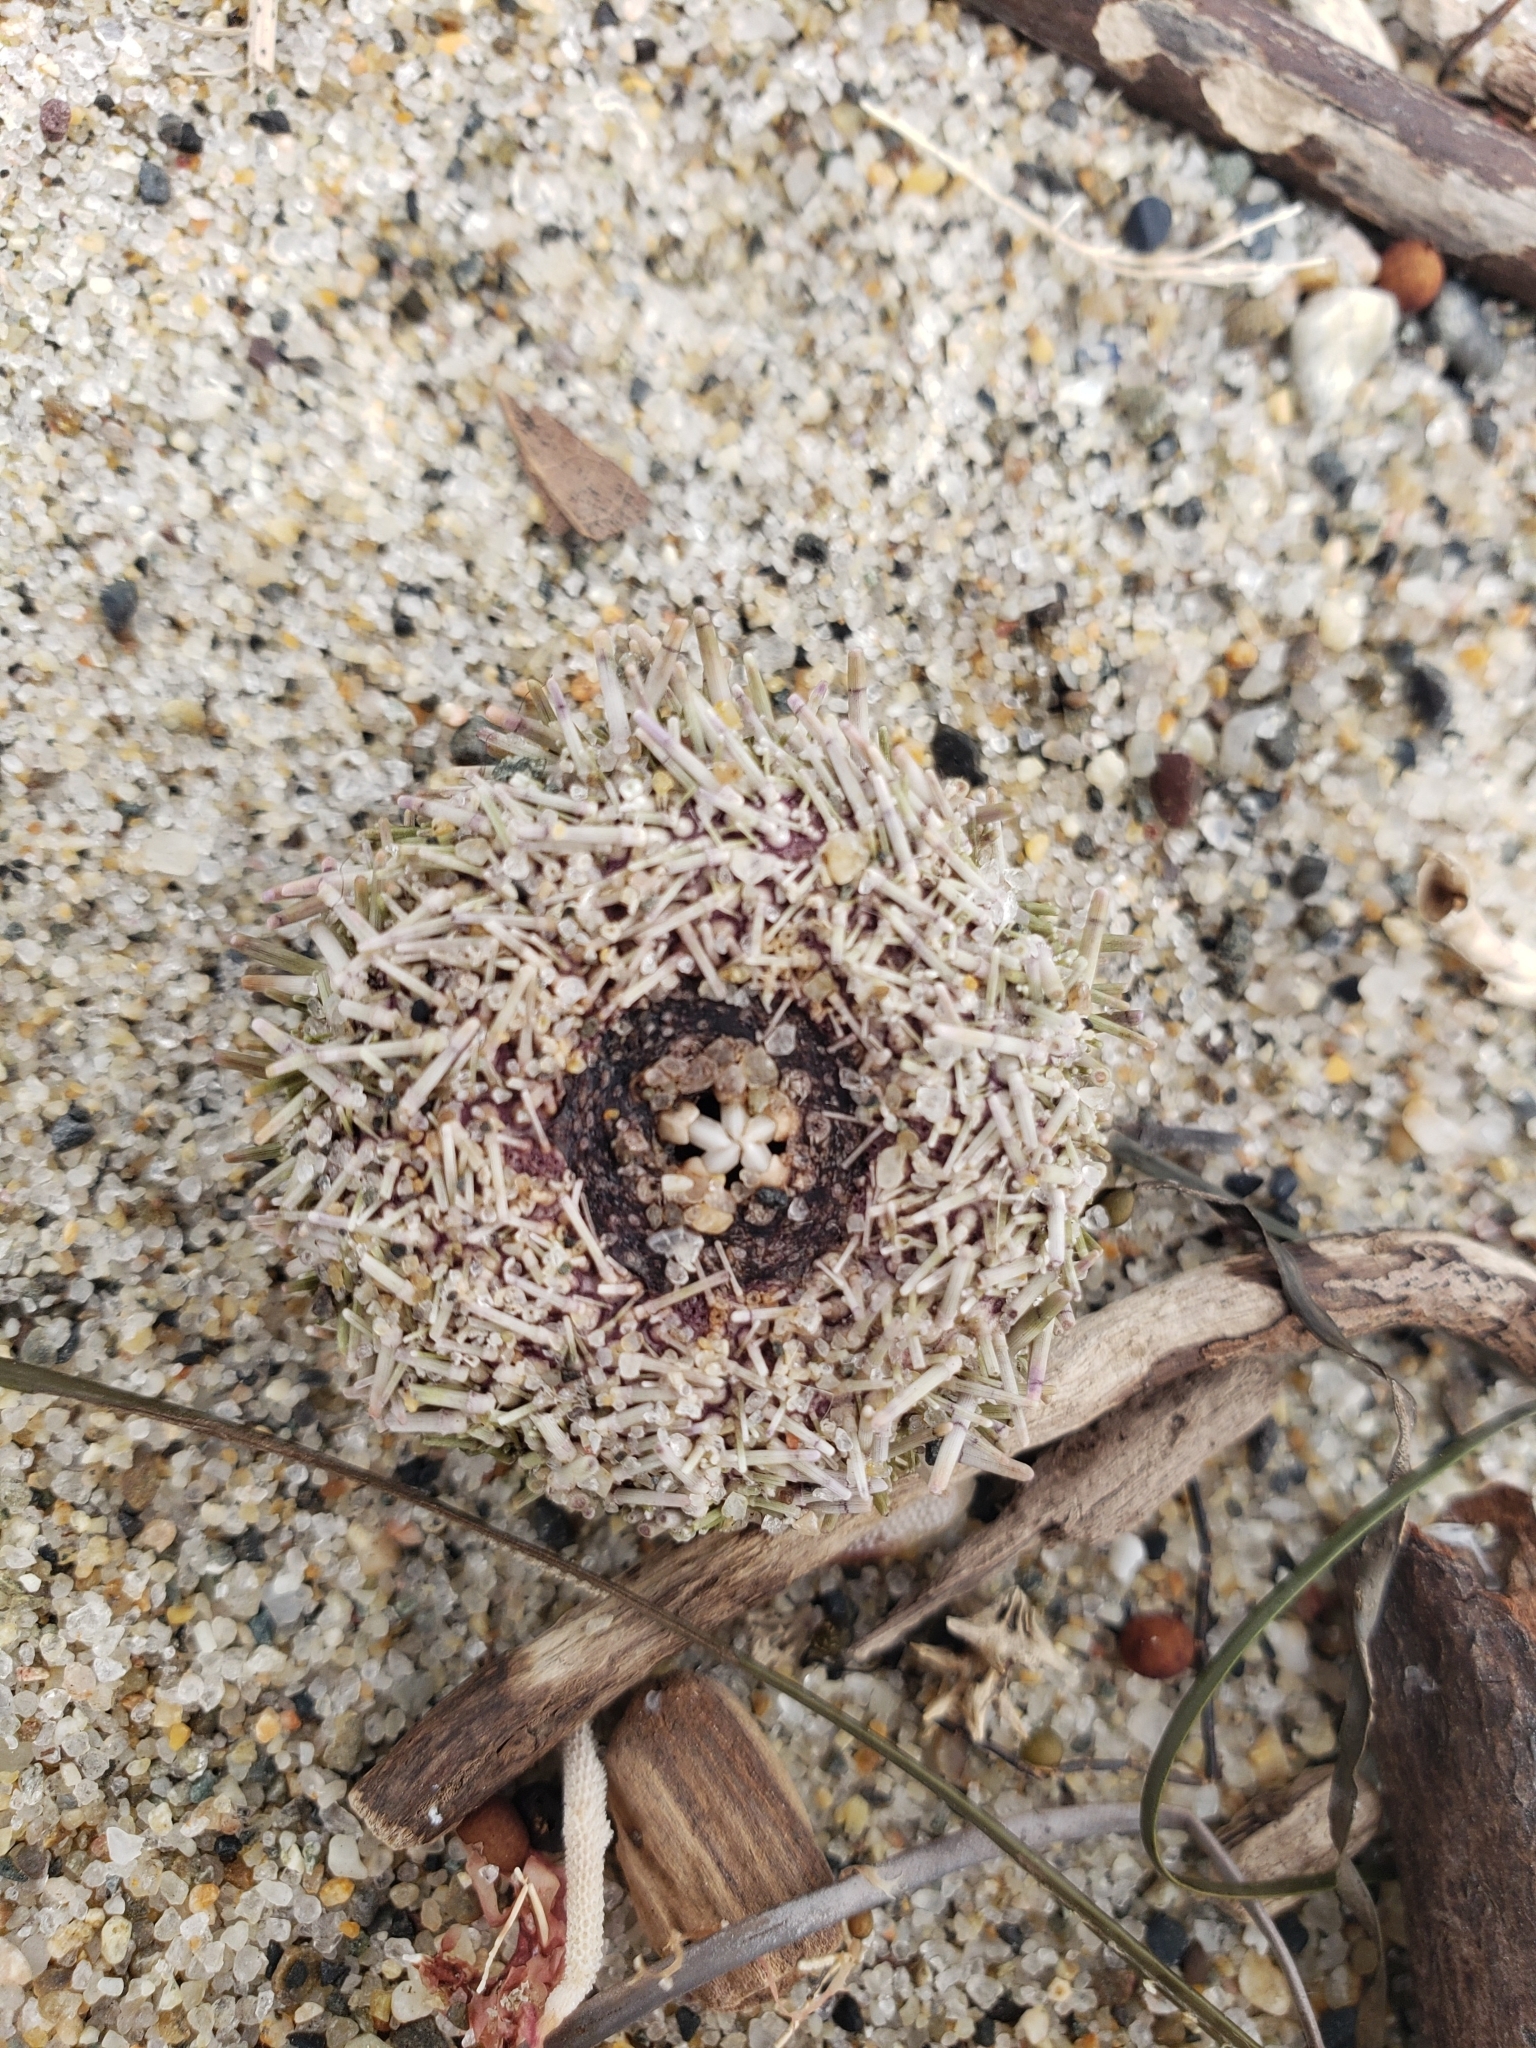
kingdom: Animalia
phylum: Echinodermata
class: Echinoidea
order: Camarodonta
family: Strongylocentrotidae
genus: Strongylocentrotus
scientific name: Strongylocentrotus purpuratus
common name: Purple sea urchin
